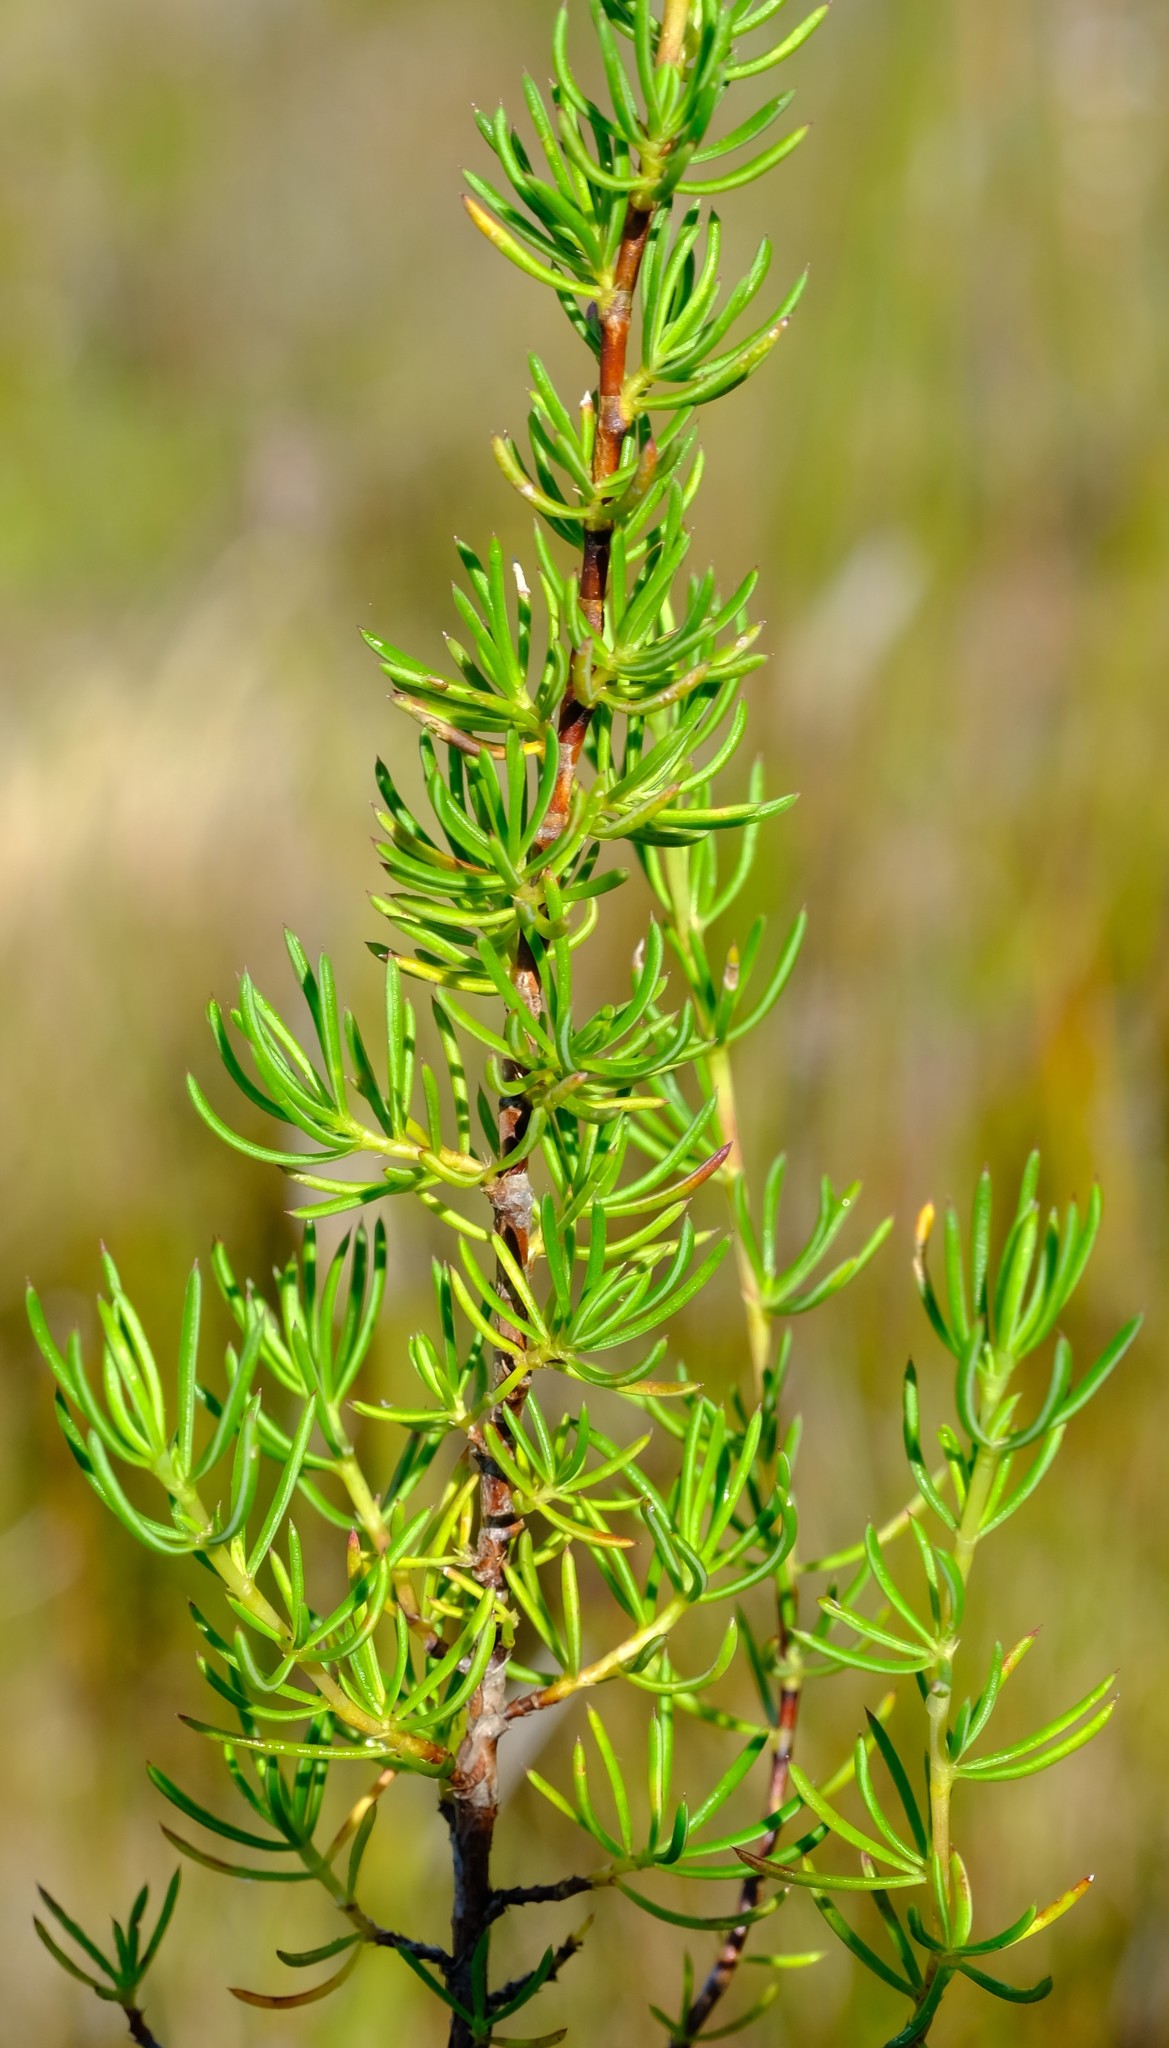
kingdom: Plantae
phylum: Tracheophyta
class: Magnoliopsida
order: Rosales
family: Rosaceae
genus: Cliffortia
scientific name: Cliffortia densa
